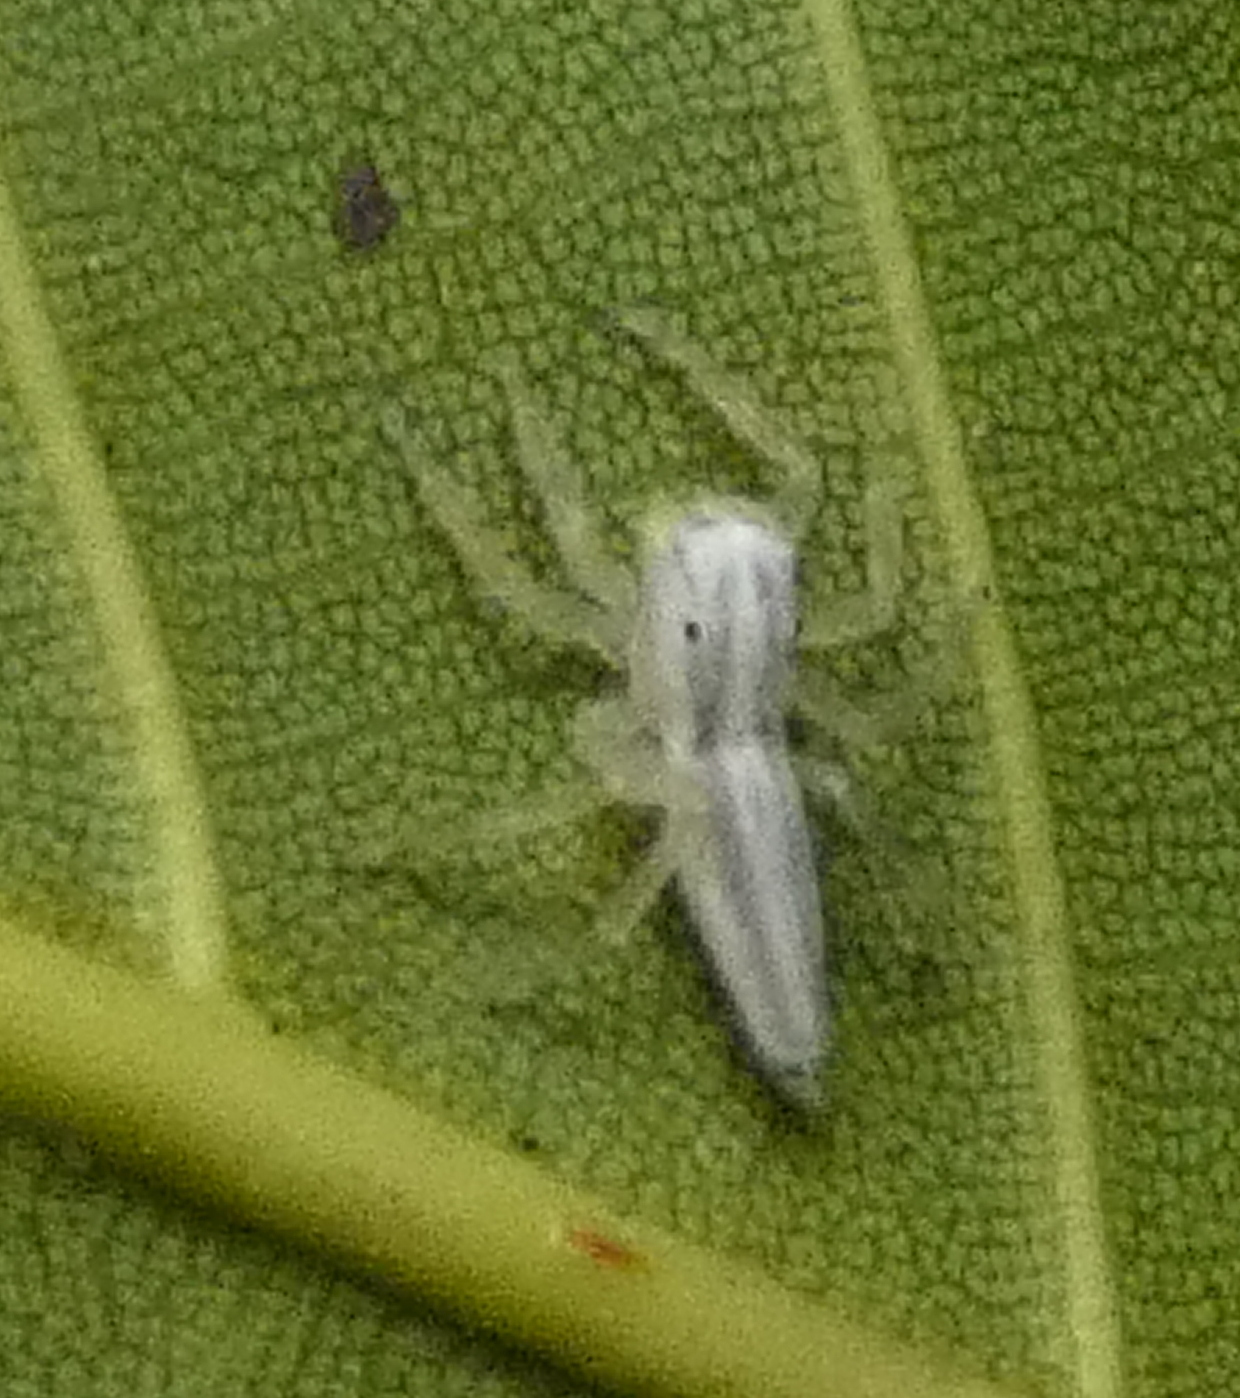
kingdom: Animalia
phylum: Arthropoda
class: Arachnida
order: Araneae
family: Salticidae
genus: Chira
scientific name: Chira trivittata
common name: Jumping spiders
